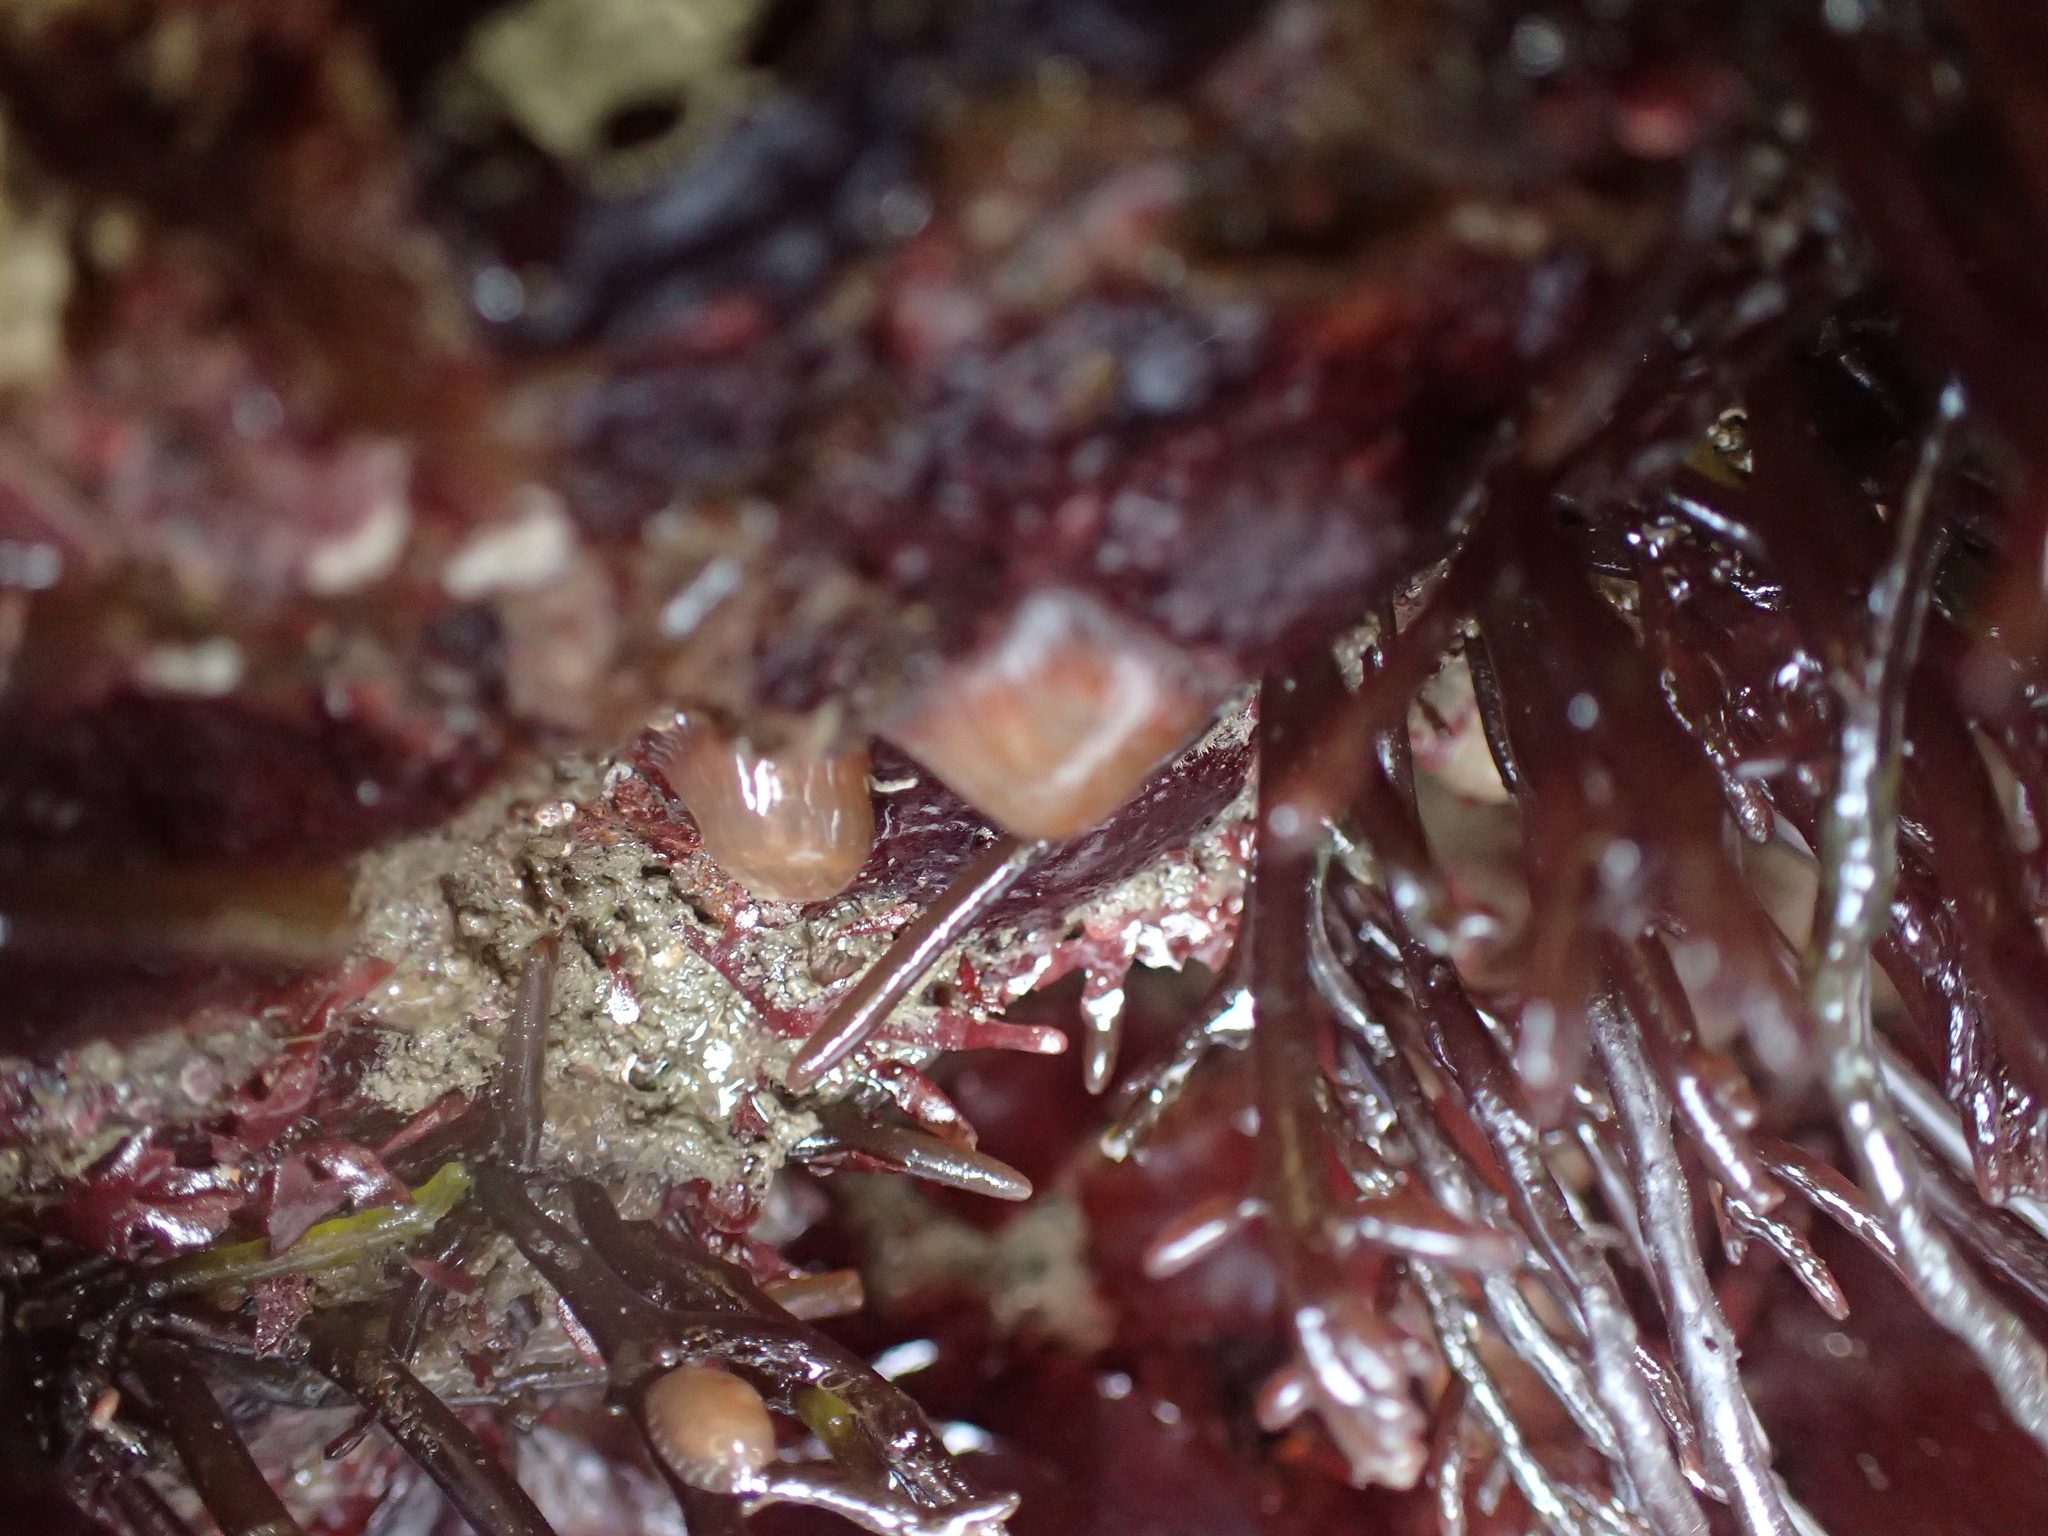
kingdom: Animalia
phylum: Cnidaria
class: Anthozoa
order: Actiniaria
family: Actiniidae
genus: Epiactis
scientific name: Epiactis prolifera
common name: Brooding anemone
